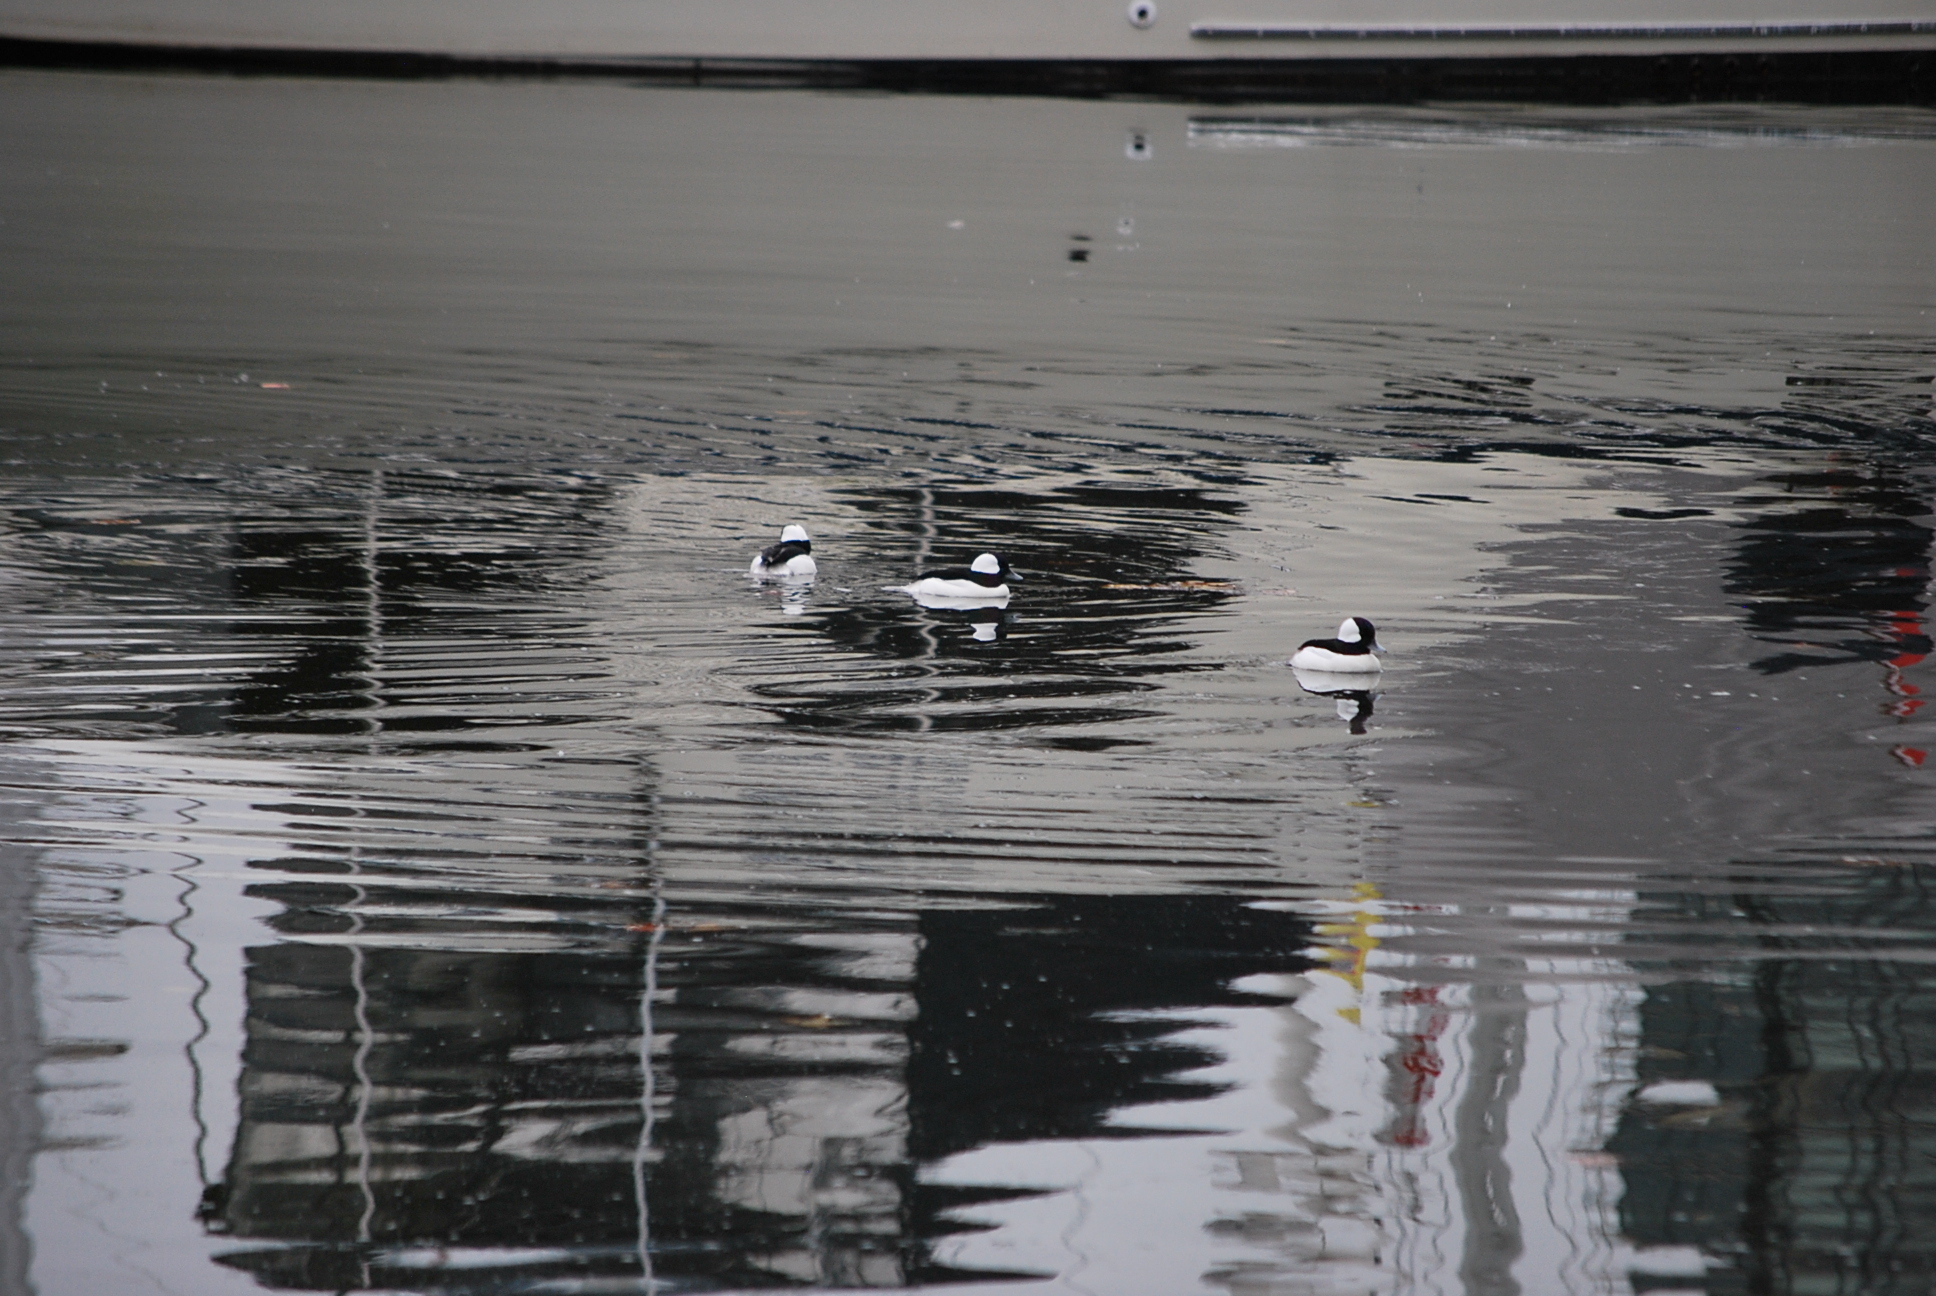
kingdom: Animalia
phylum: Chordata
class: Aves
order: Anseriformes
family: Anatidae
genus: Bucephala
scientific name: Bucephala albeola
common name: Bufflehead
